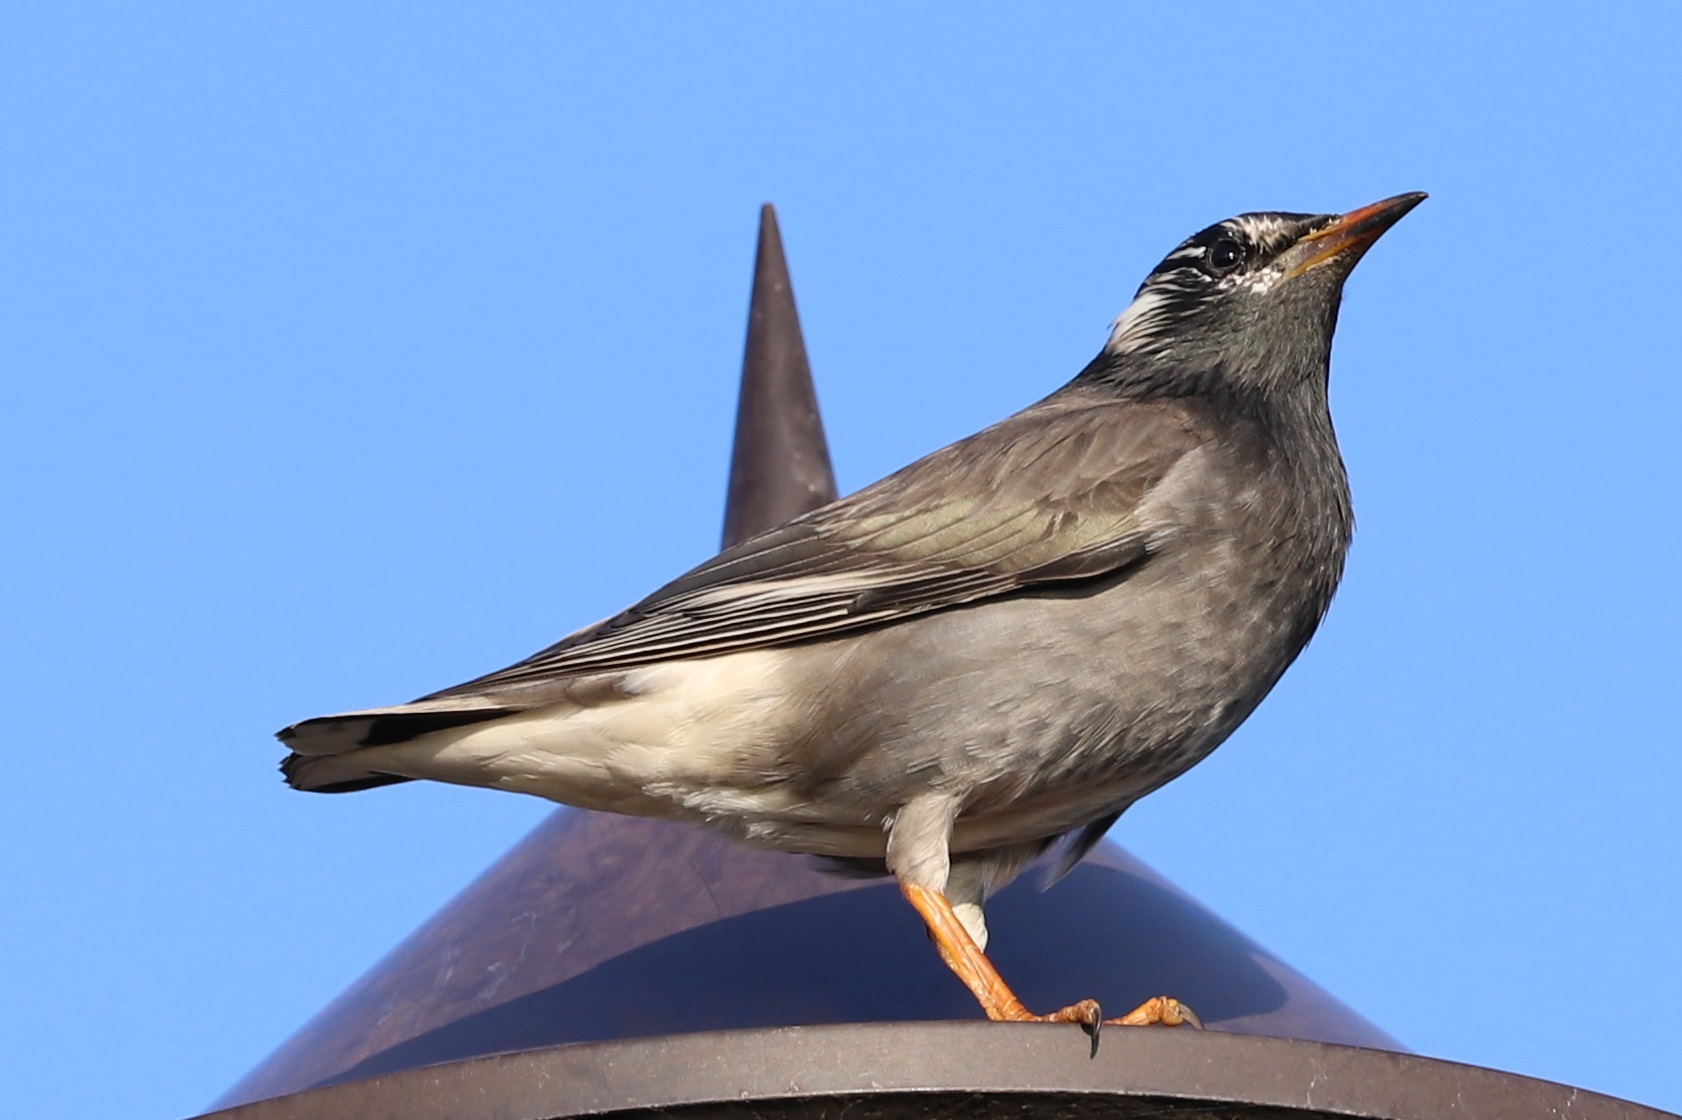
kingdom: Animalia
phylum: Chordata
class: Aves
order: Passeriformes
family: Sturnidae
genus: Spodiopsar
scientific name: Spodiopsar cineraceus
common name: White-cheeked starling
